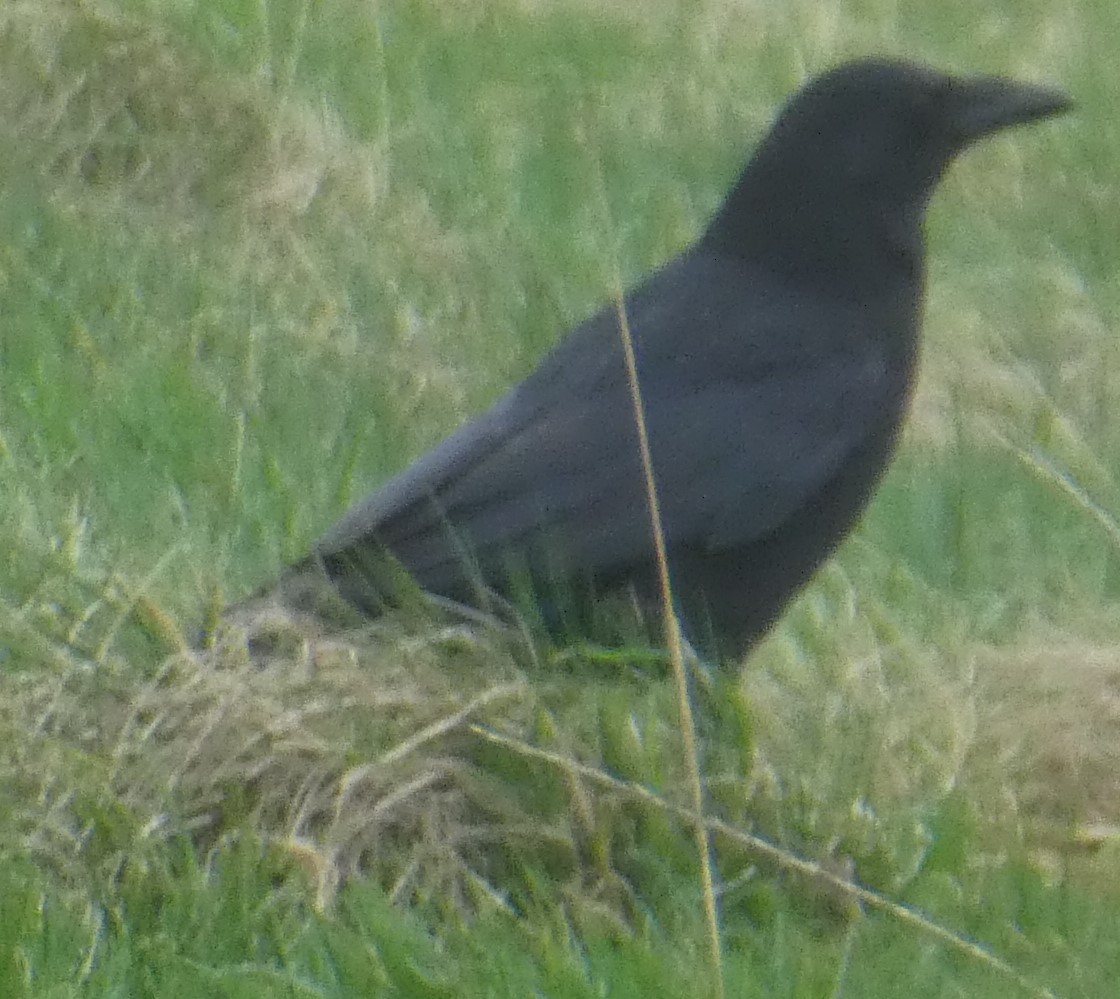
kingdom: Animalia
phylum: Chordata
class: Aves
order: Passeriformes
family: Corvidae
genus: Corvus
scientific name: Corvus corone
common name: Carrion crow
